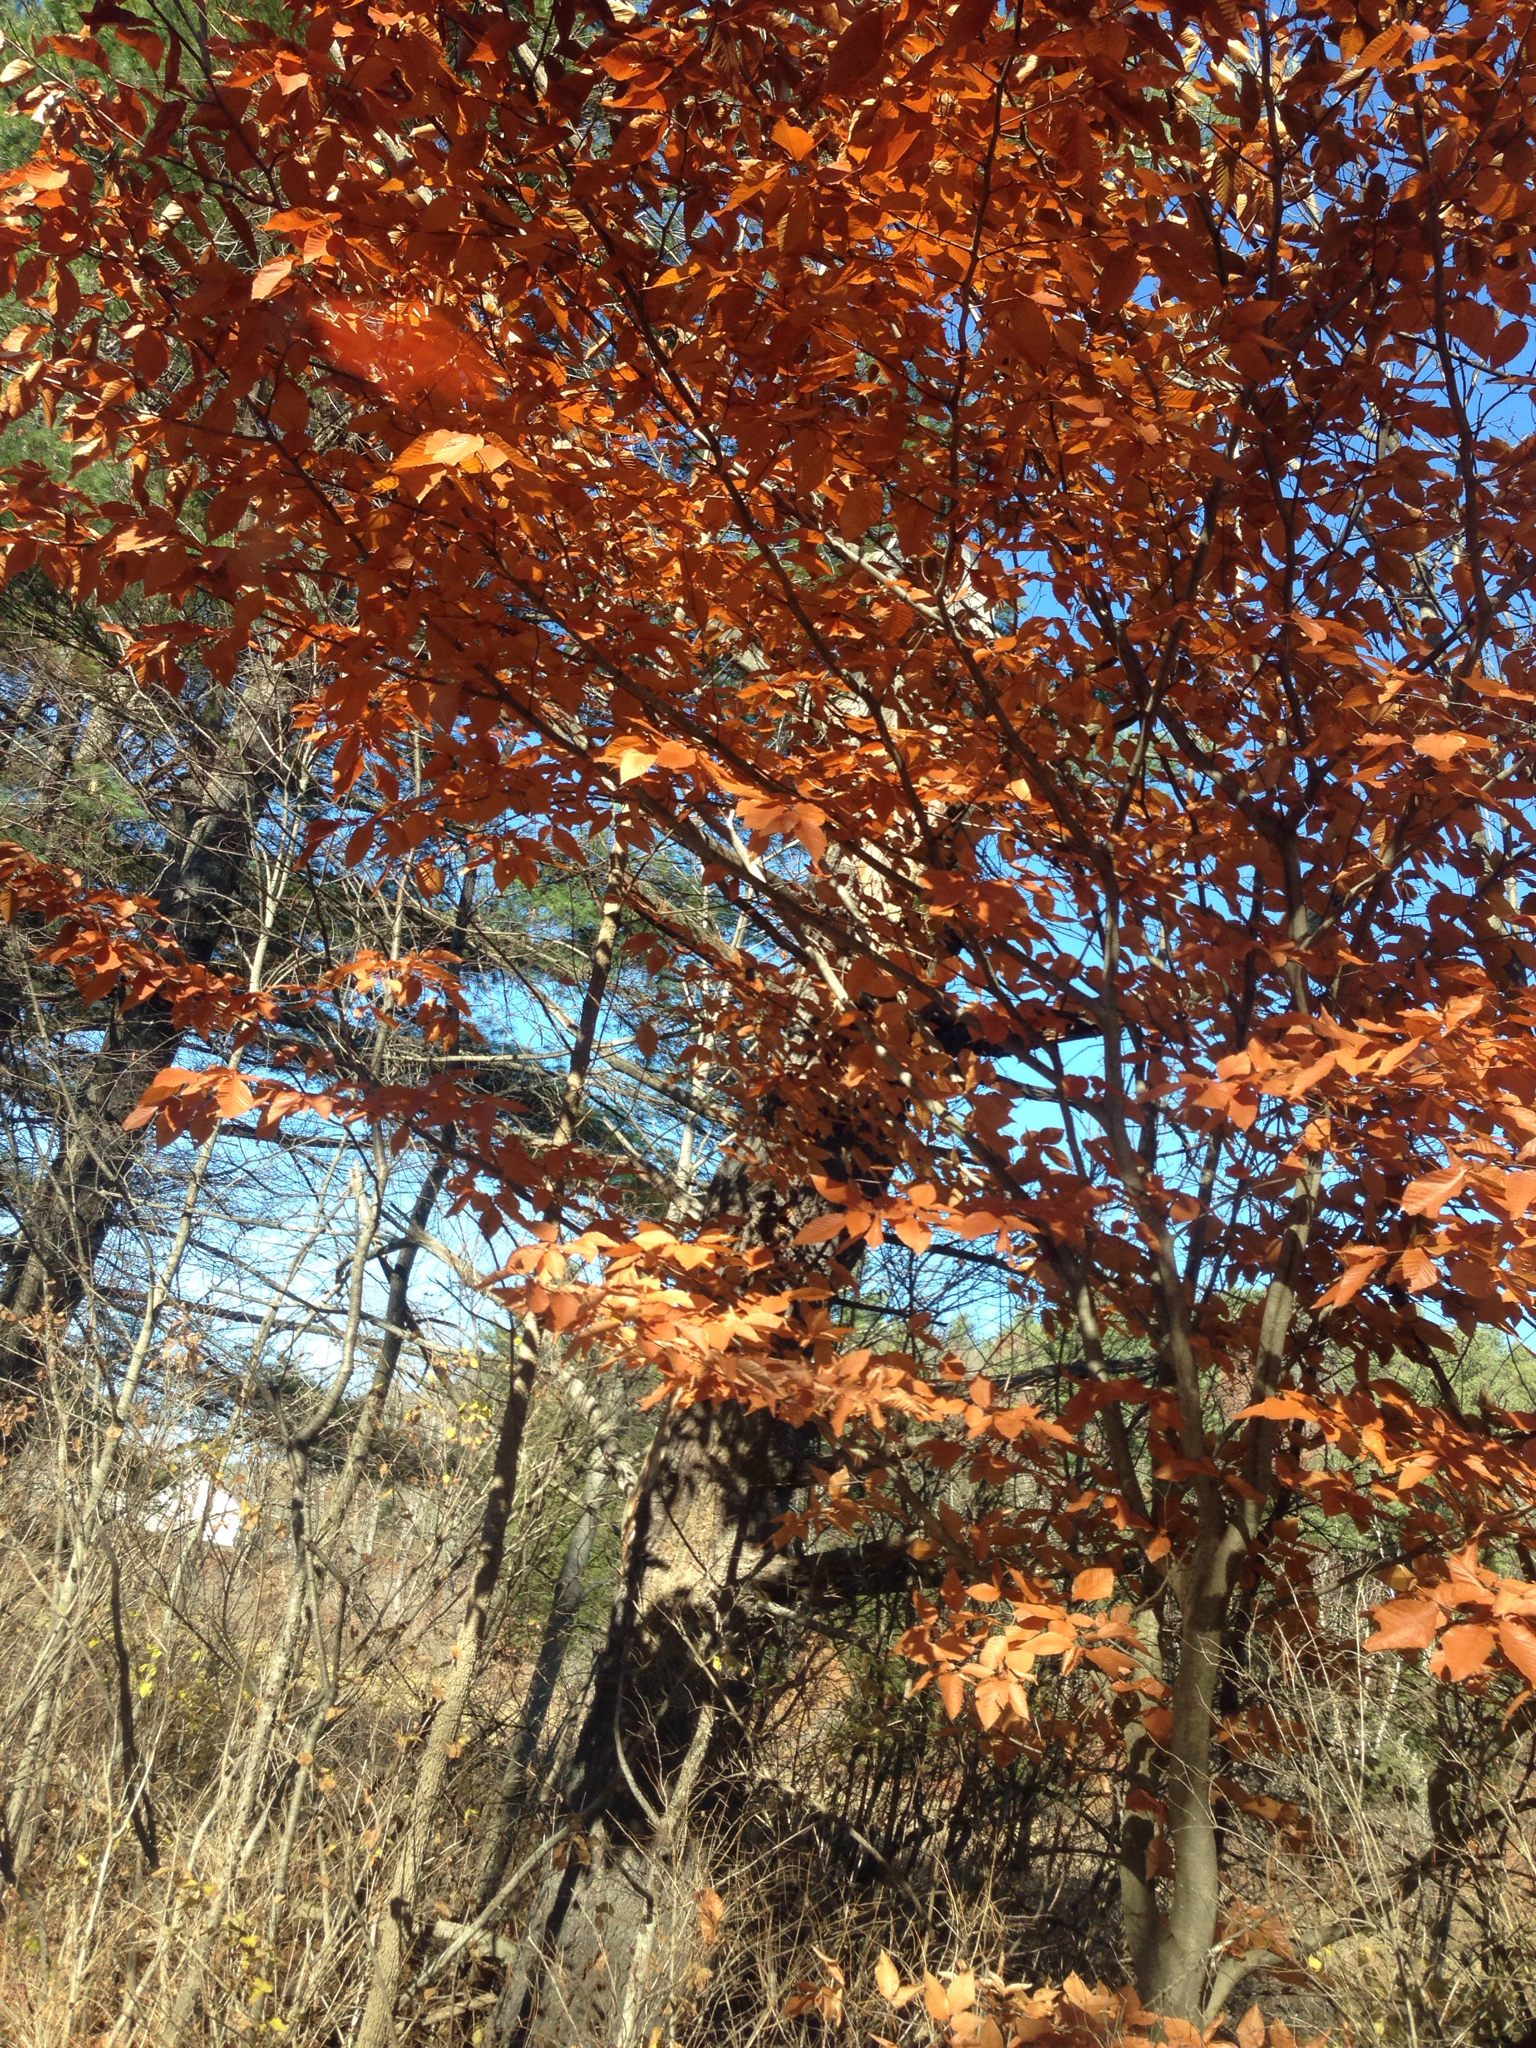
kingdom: Plantae
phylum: Tracheophyta
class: Magnoliopsida
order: Fagales
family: Fagaceae
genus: Fagus
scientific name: Fagus grandifolia
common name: American beech
